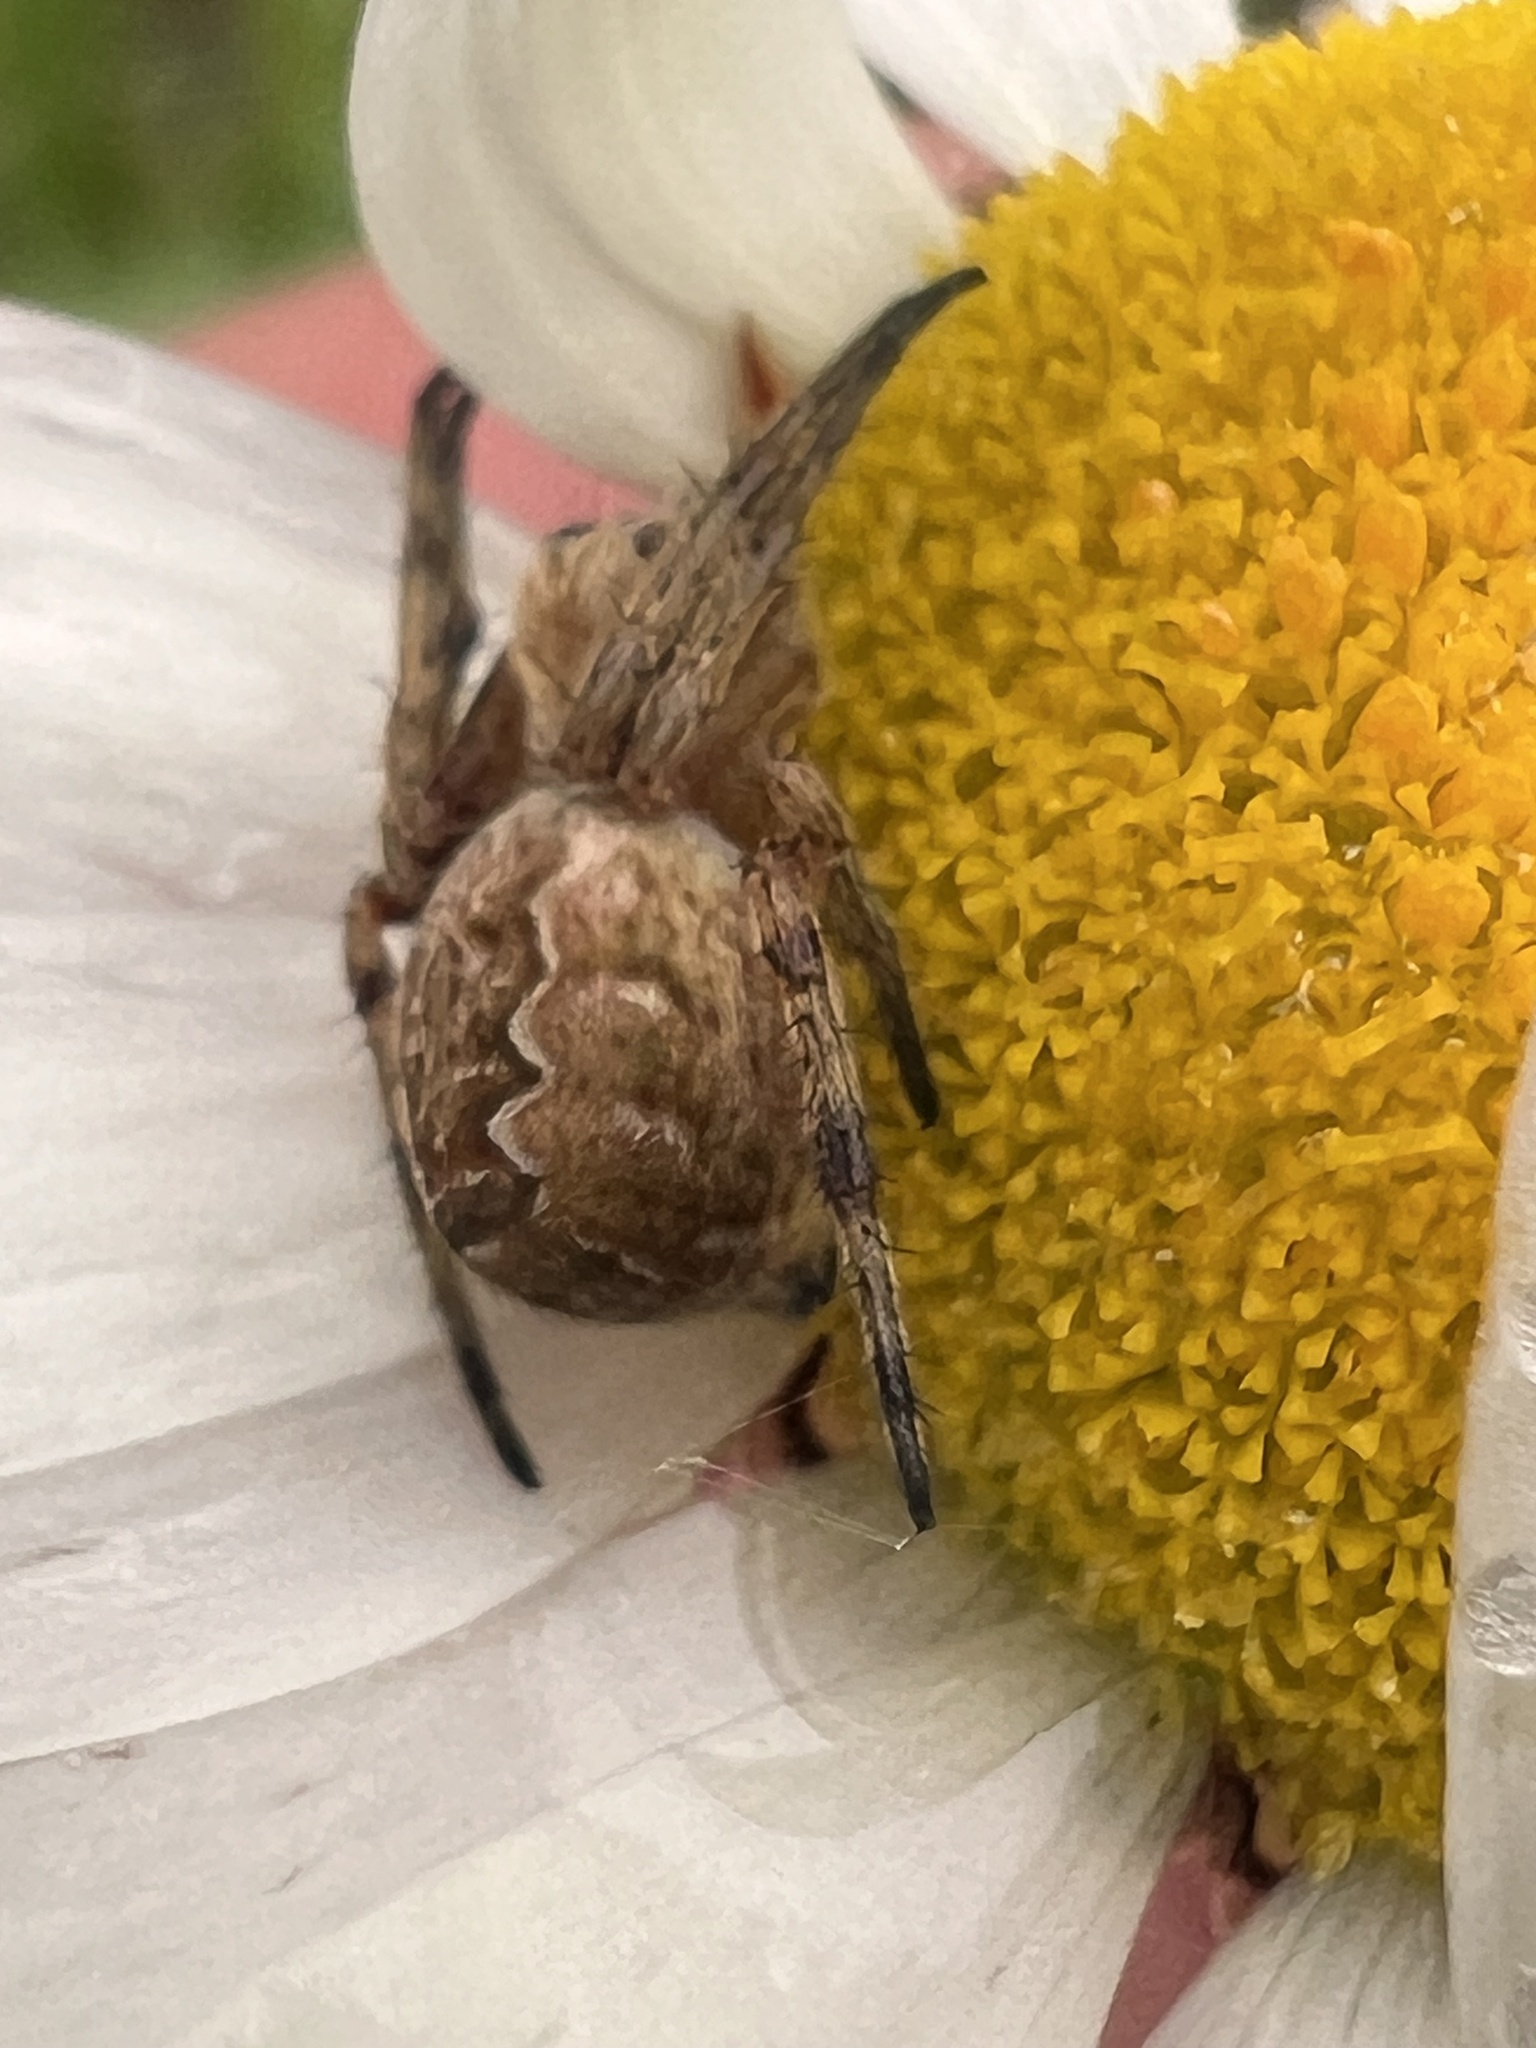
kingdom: Animalia
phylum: Arthropoda
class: Arachnida
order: Araneae
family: Araneidae
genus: Salsa
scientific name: Salsa fuliginata
